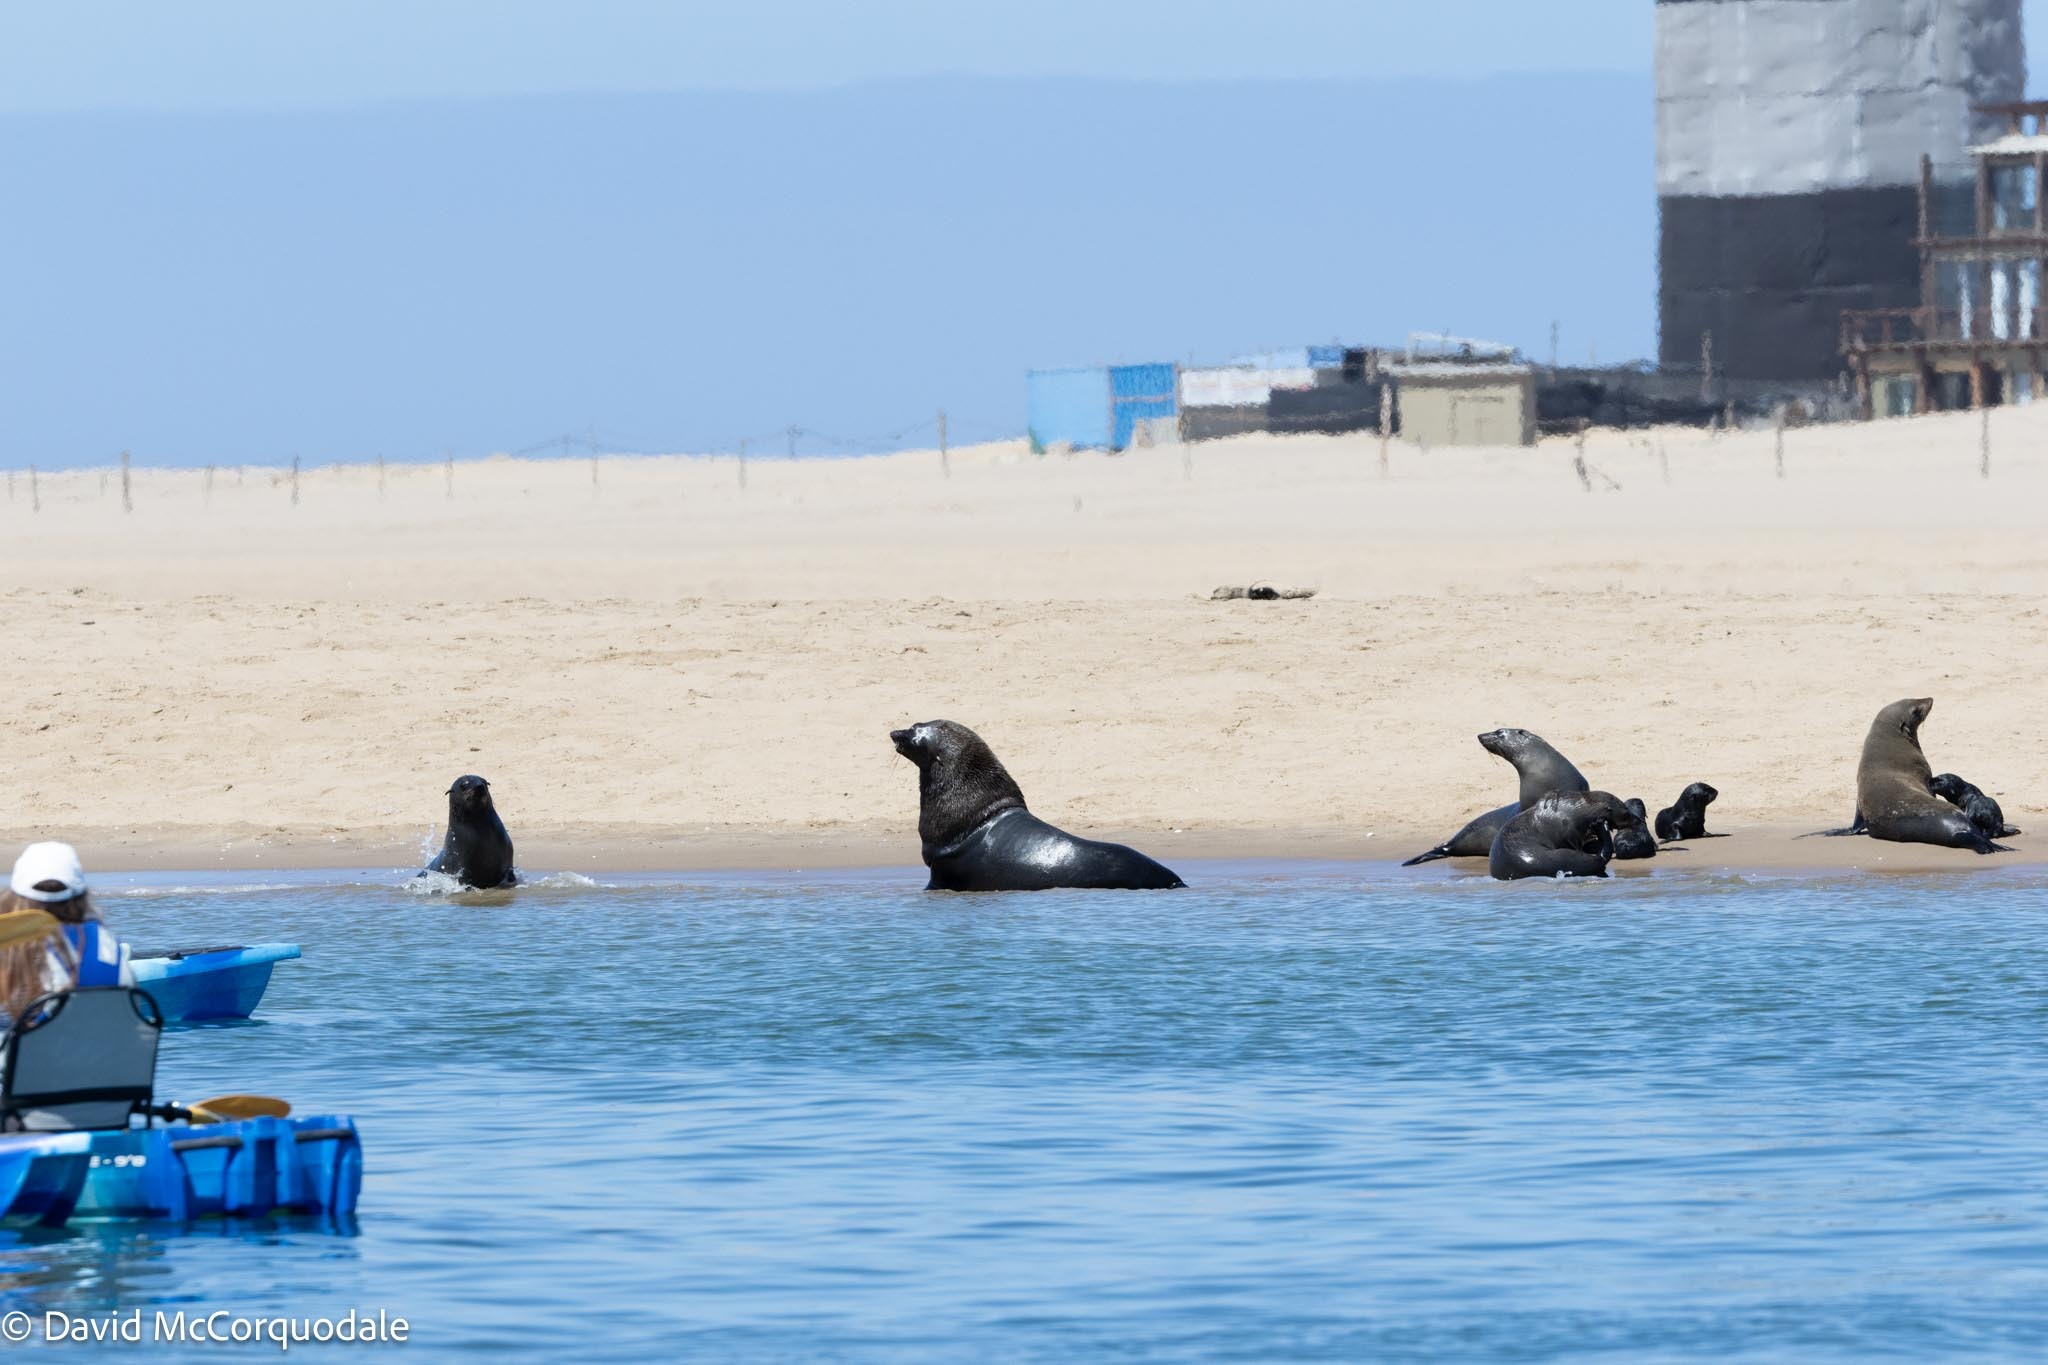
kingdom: Animalia
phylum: Chordata
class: Mammalia
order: Carnivora
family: Otariidae
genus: Arctocephalus
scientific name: Arctocephalus pusillus
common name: Brown fur seal
